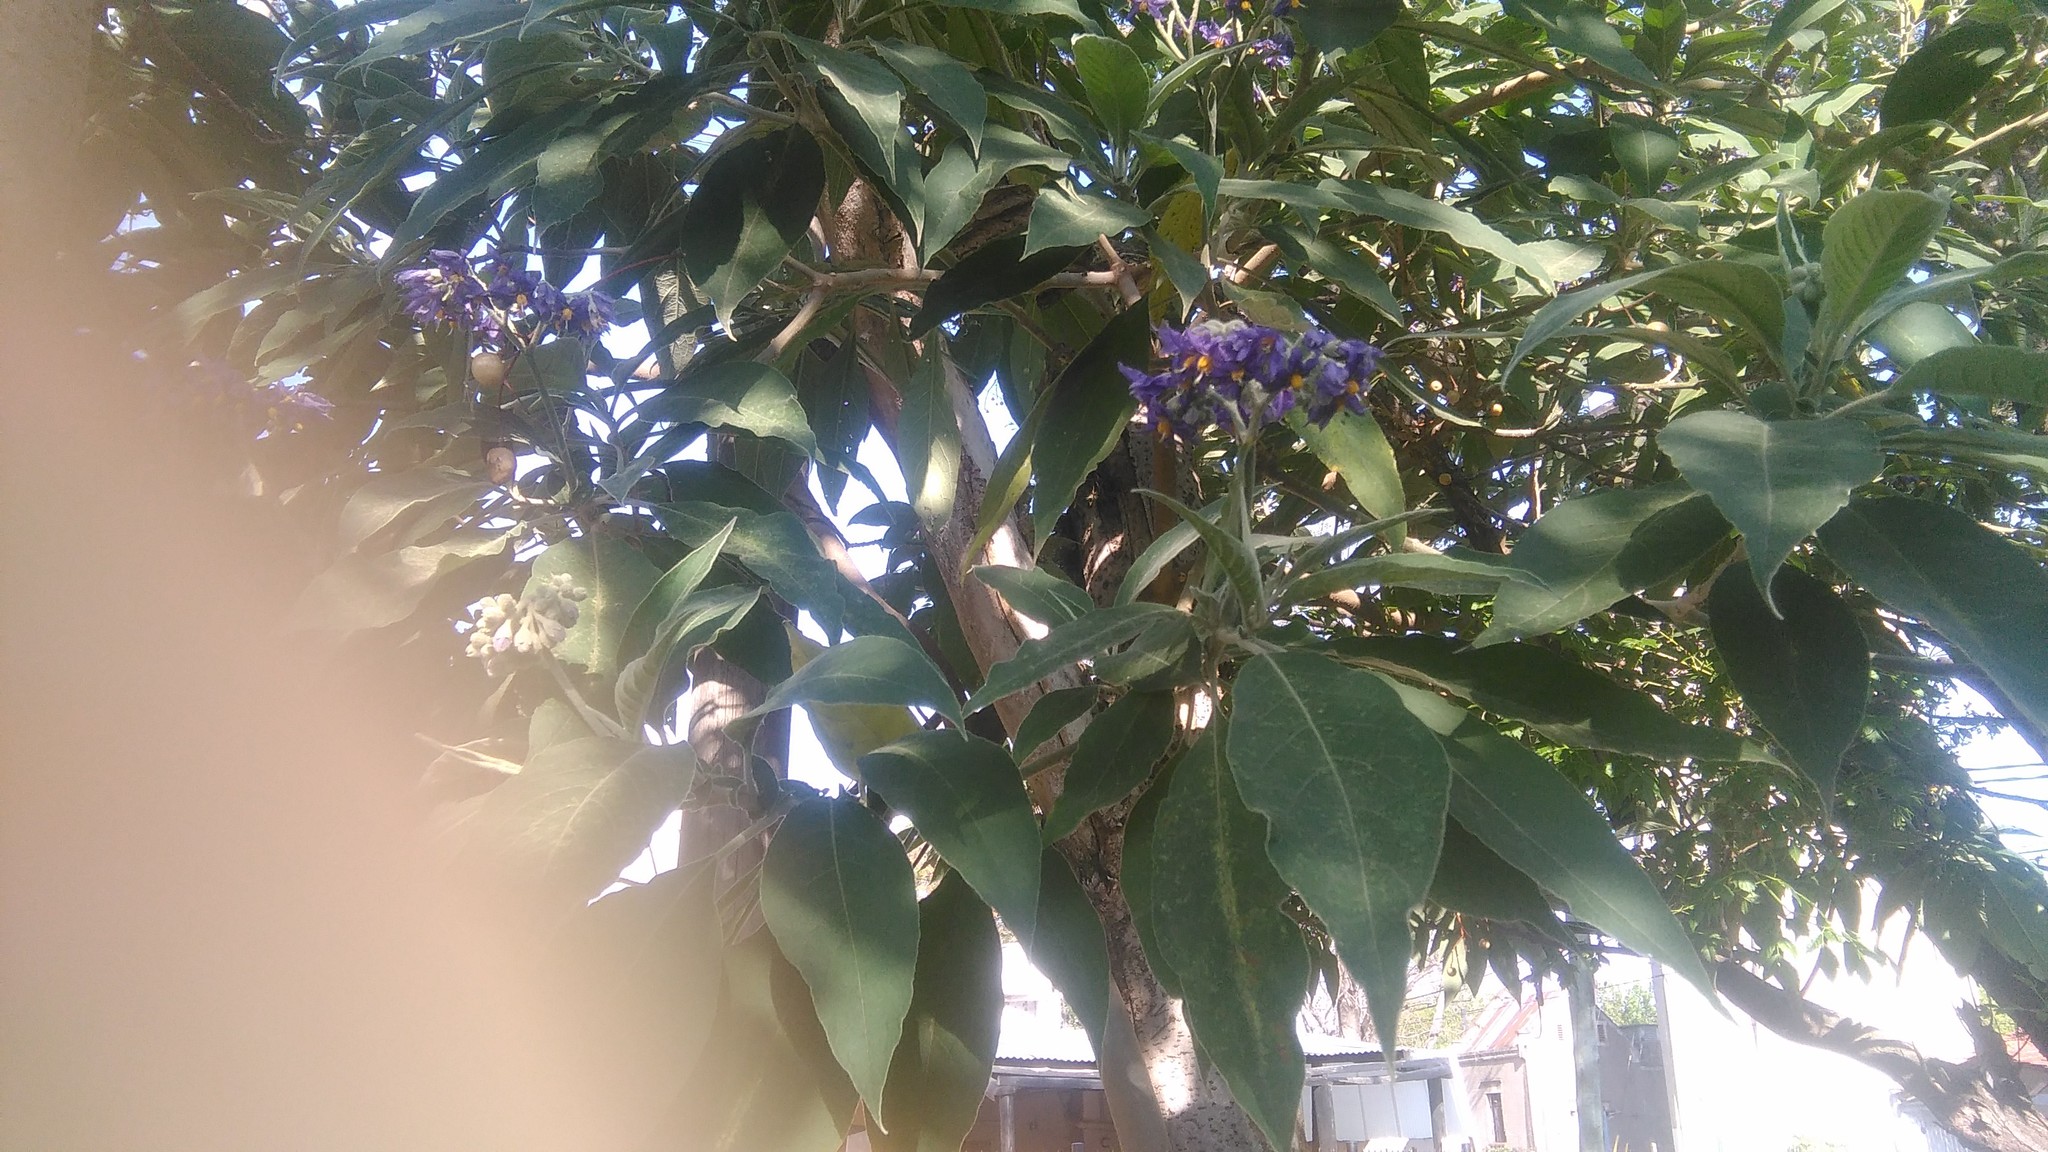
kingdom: Plantae
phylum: Tracheophyta
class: Magnoliopsida
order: Solanales
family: Solanaceae
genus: Solanum
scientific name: Solanum granulosoleprosum
